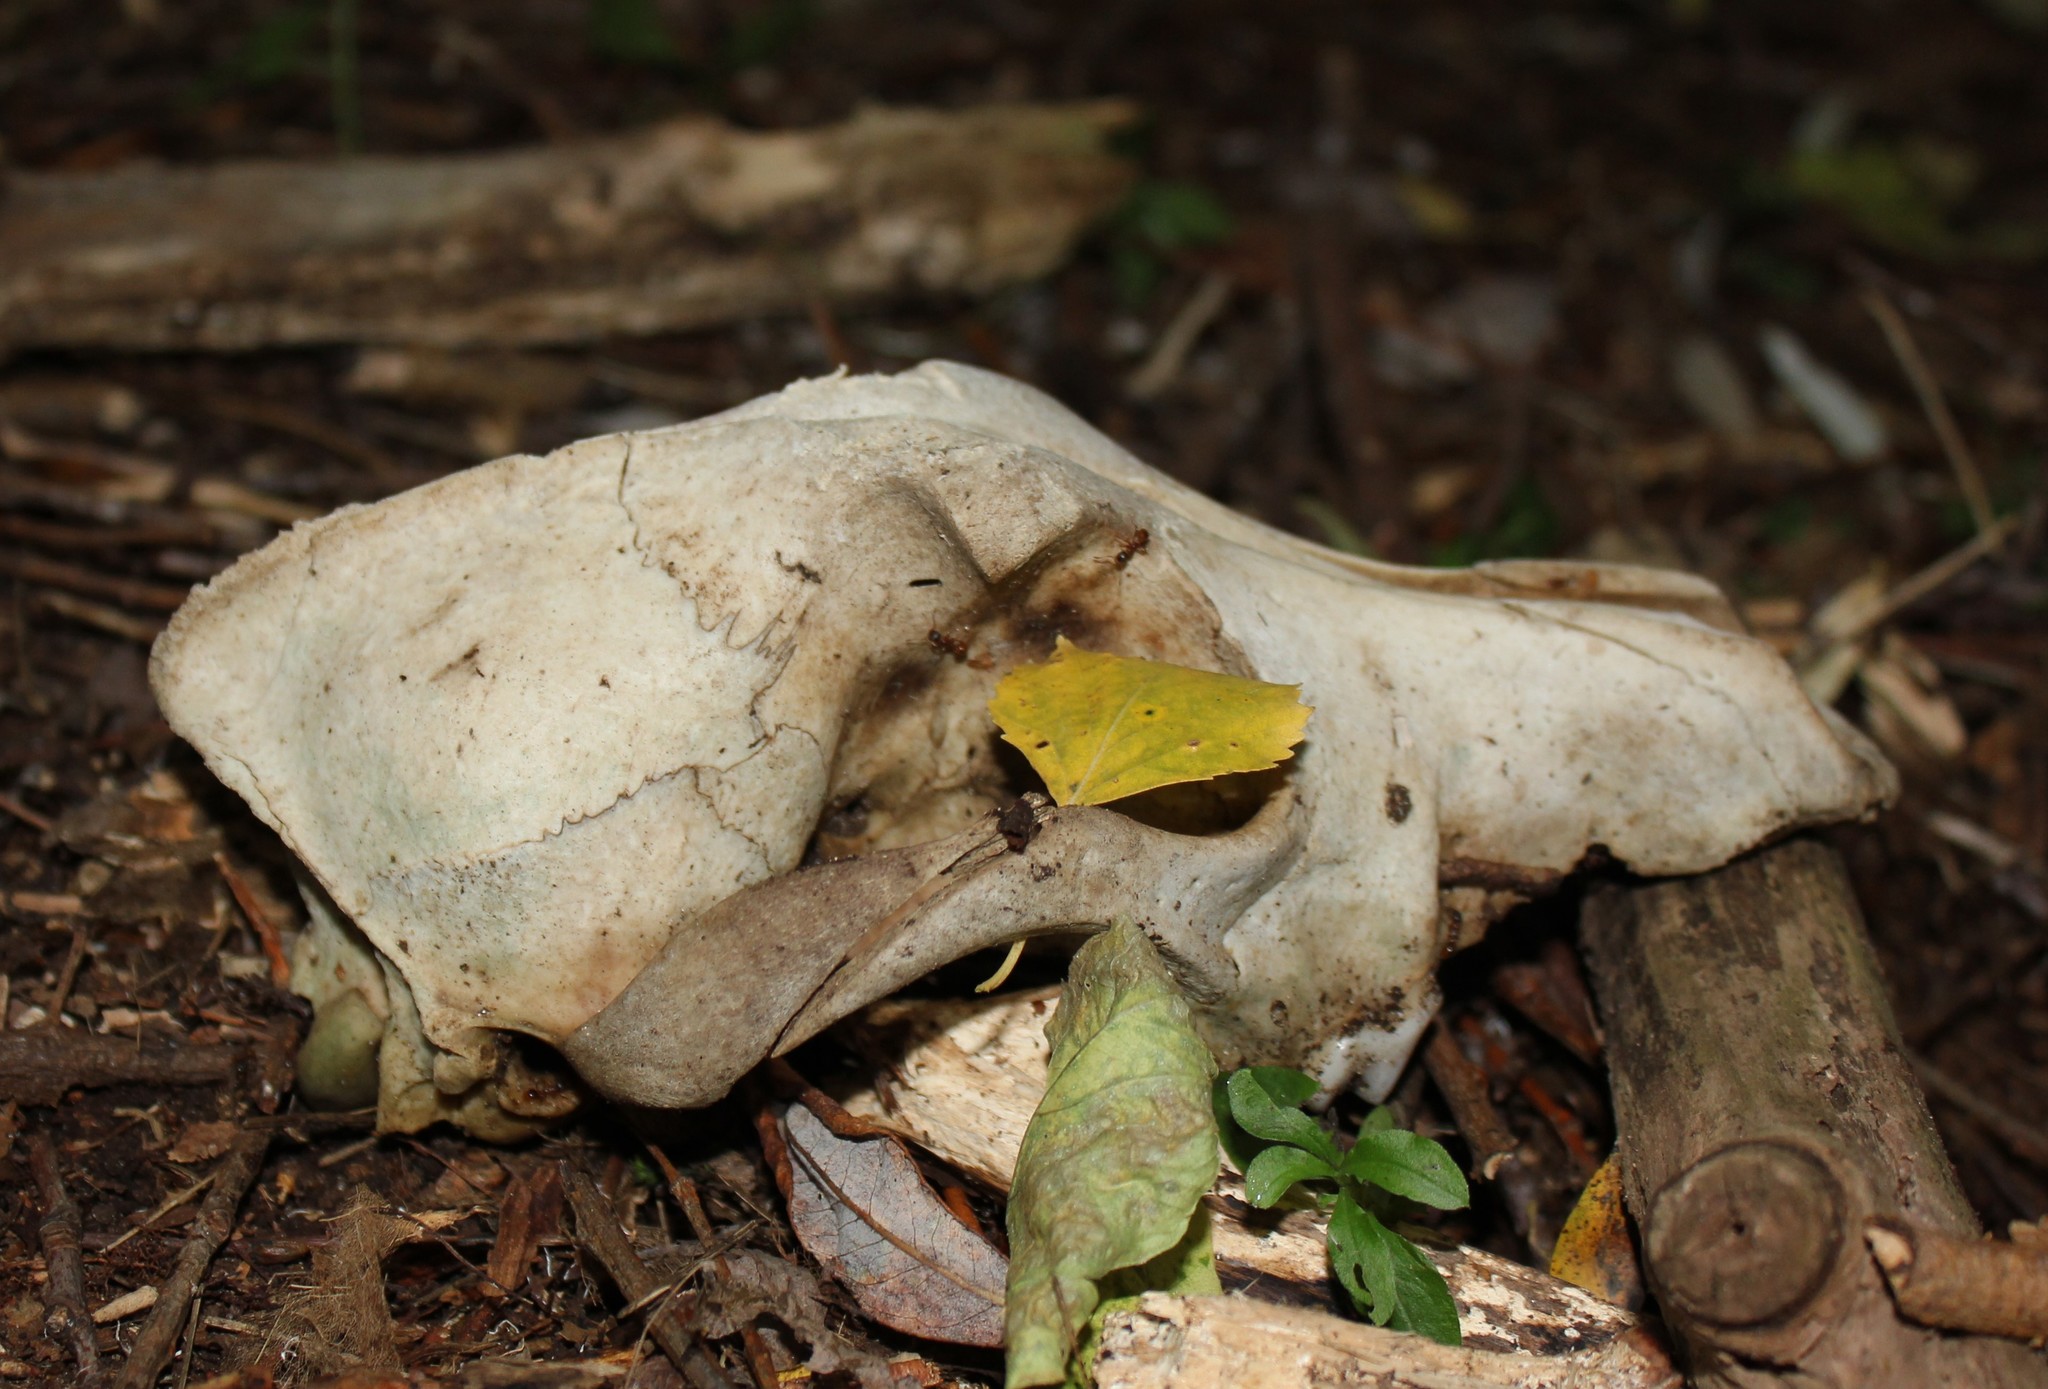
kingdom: Animalia
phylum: Chordata
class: Mammalia
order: Carnivora
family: Canidae
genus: Canis
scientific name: Canis lupus
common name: Gray wolf
